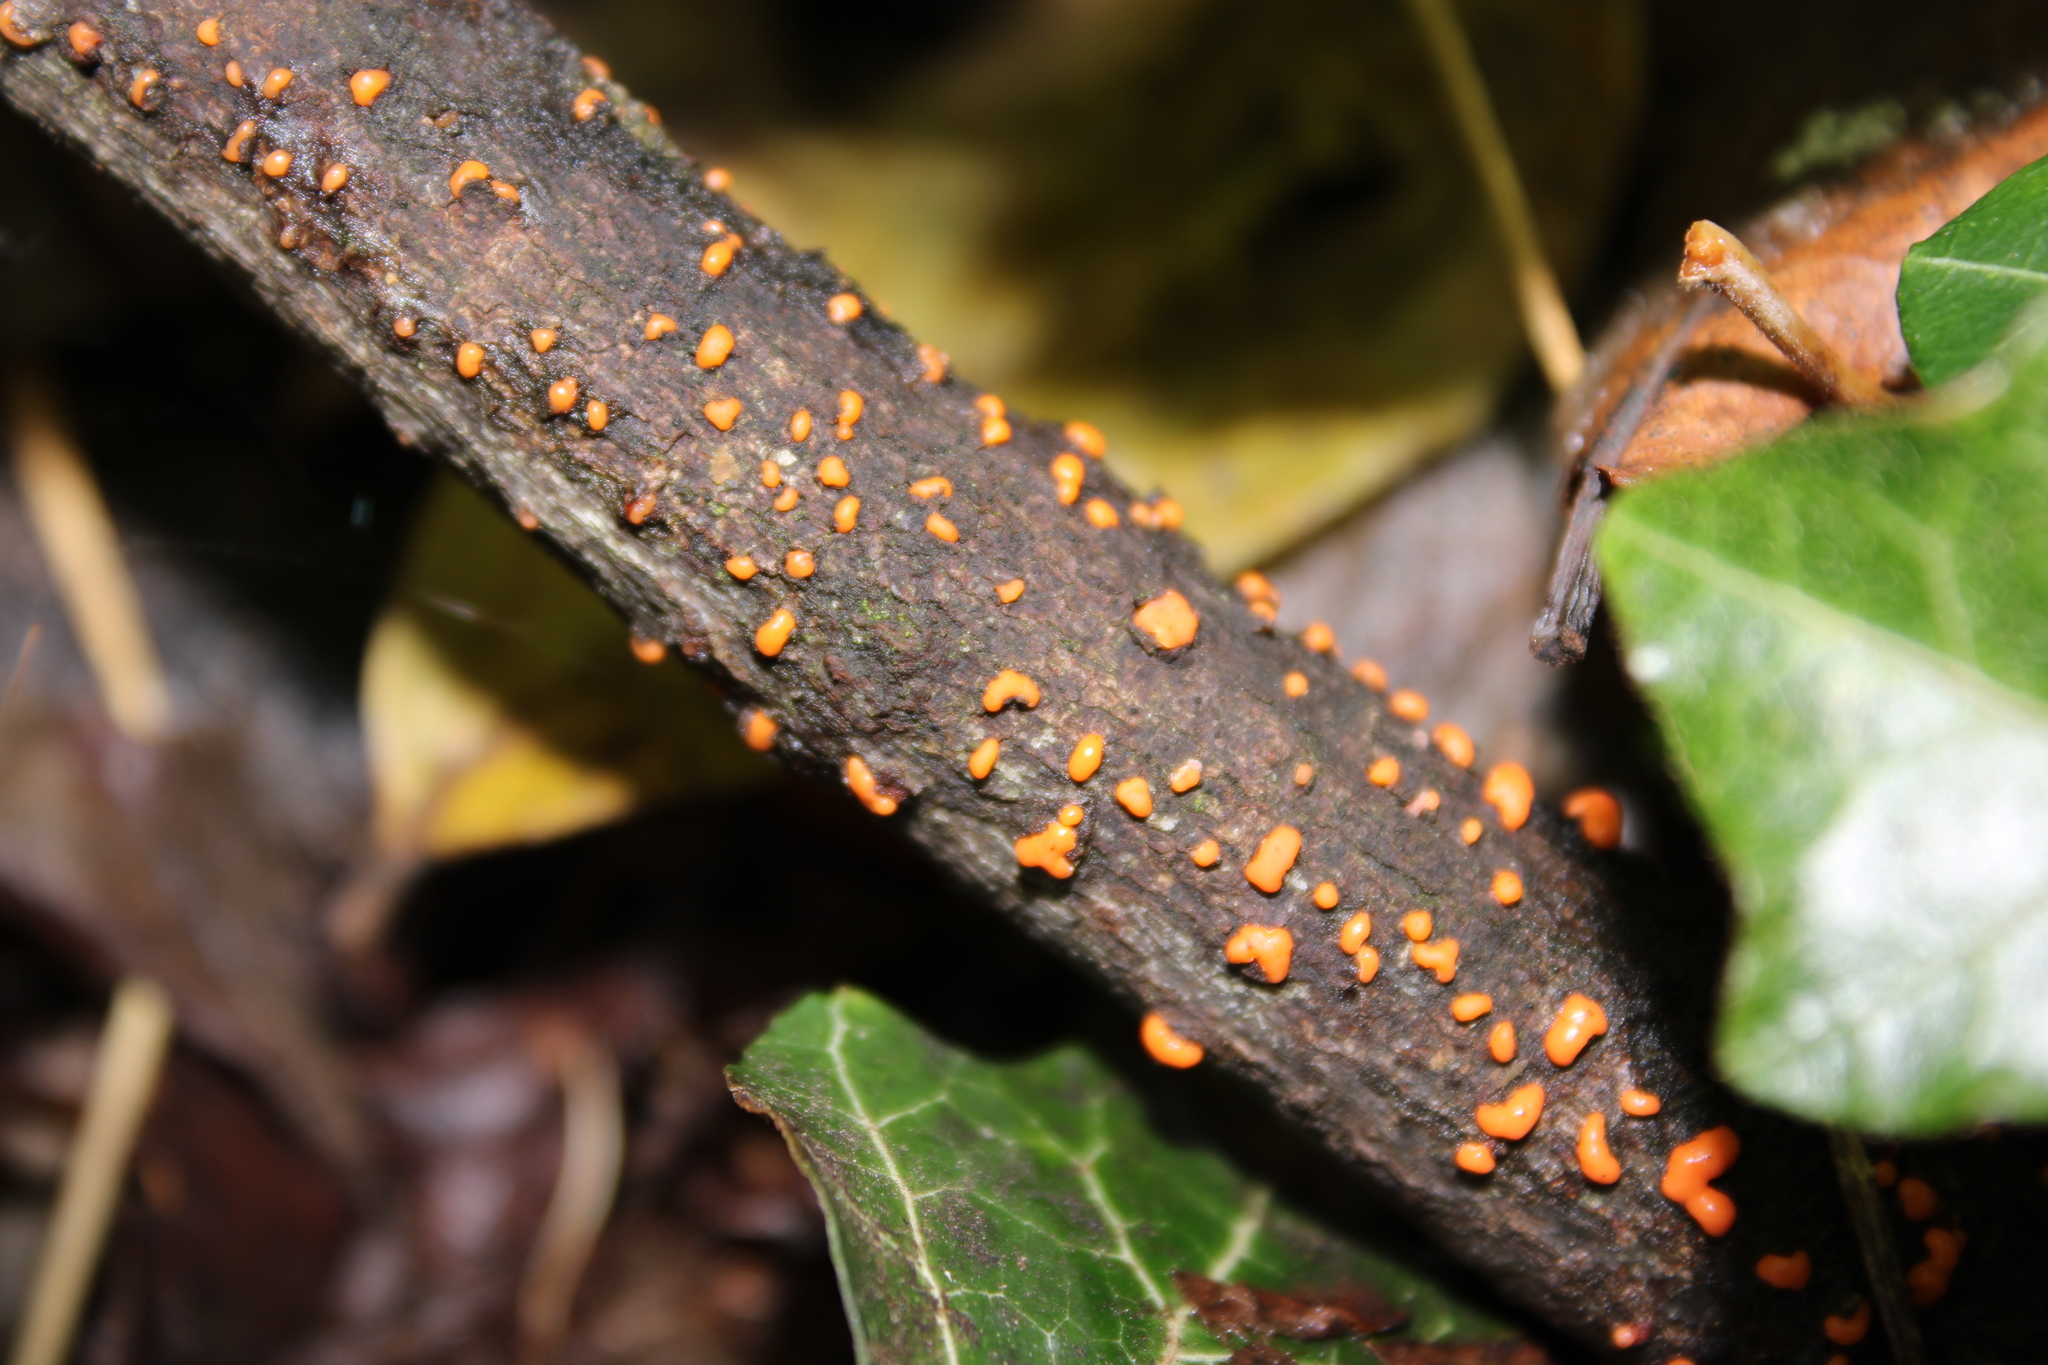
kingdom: Fungi
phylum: Ascomycota
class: Sordariomycetes
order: Hypocreales
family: Nectriaceae
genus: Nectria
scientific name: Nectria cinnabarina
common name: Coral spot
